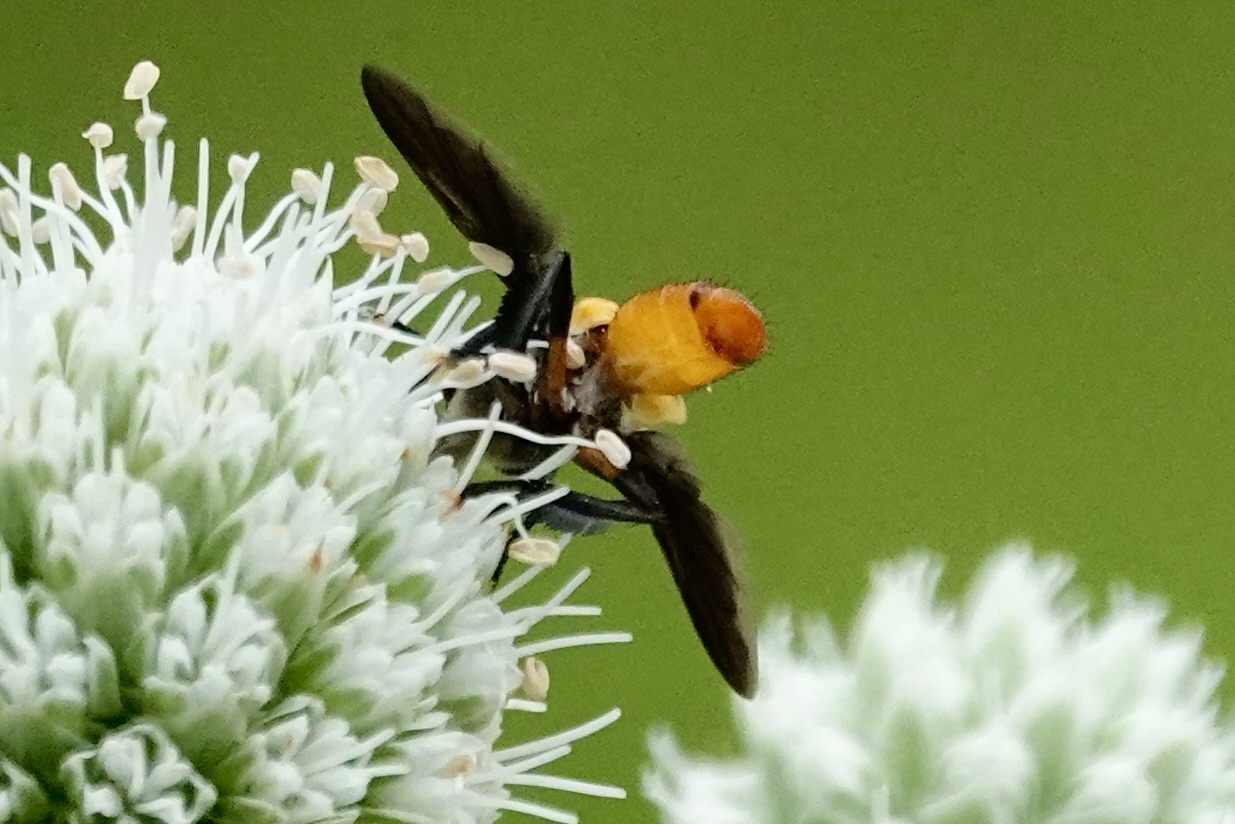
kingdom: Animalia
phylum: Arthropoda
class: Insecta
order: Diptera
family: Tachinidae
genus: Trichopoda
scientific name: Trichopoda pennipes
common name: Tachinid fly
